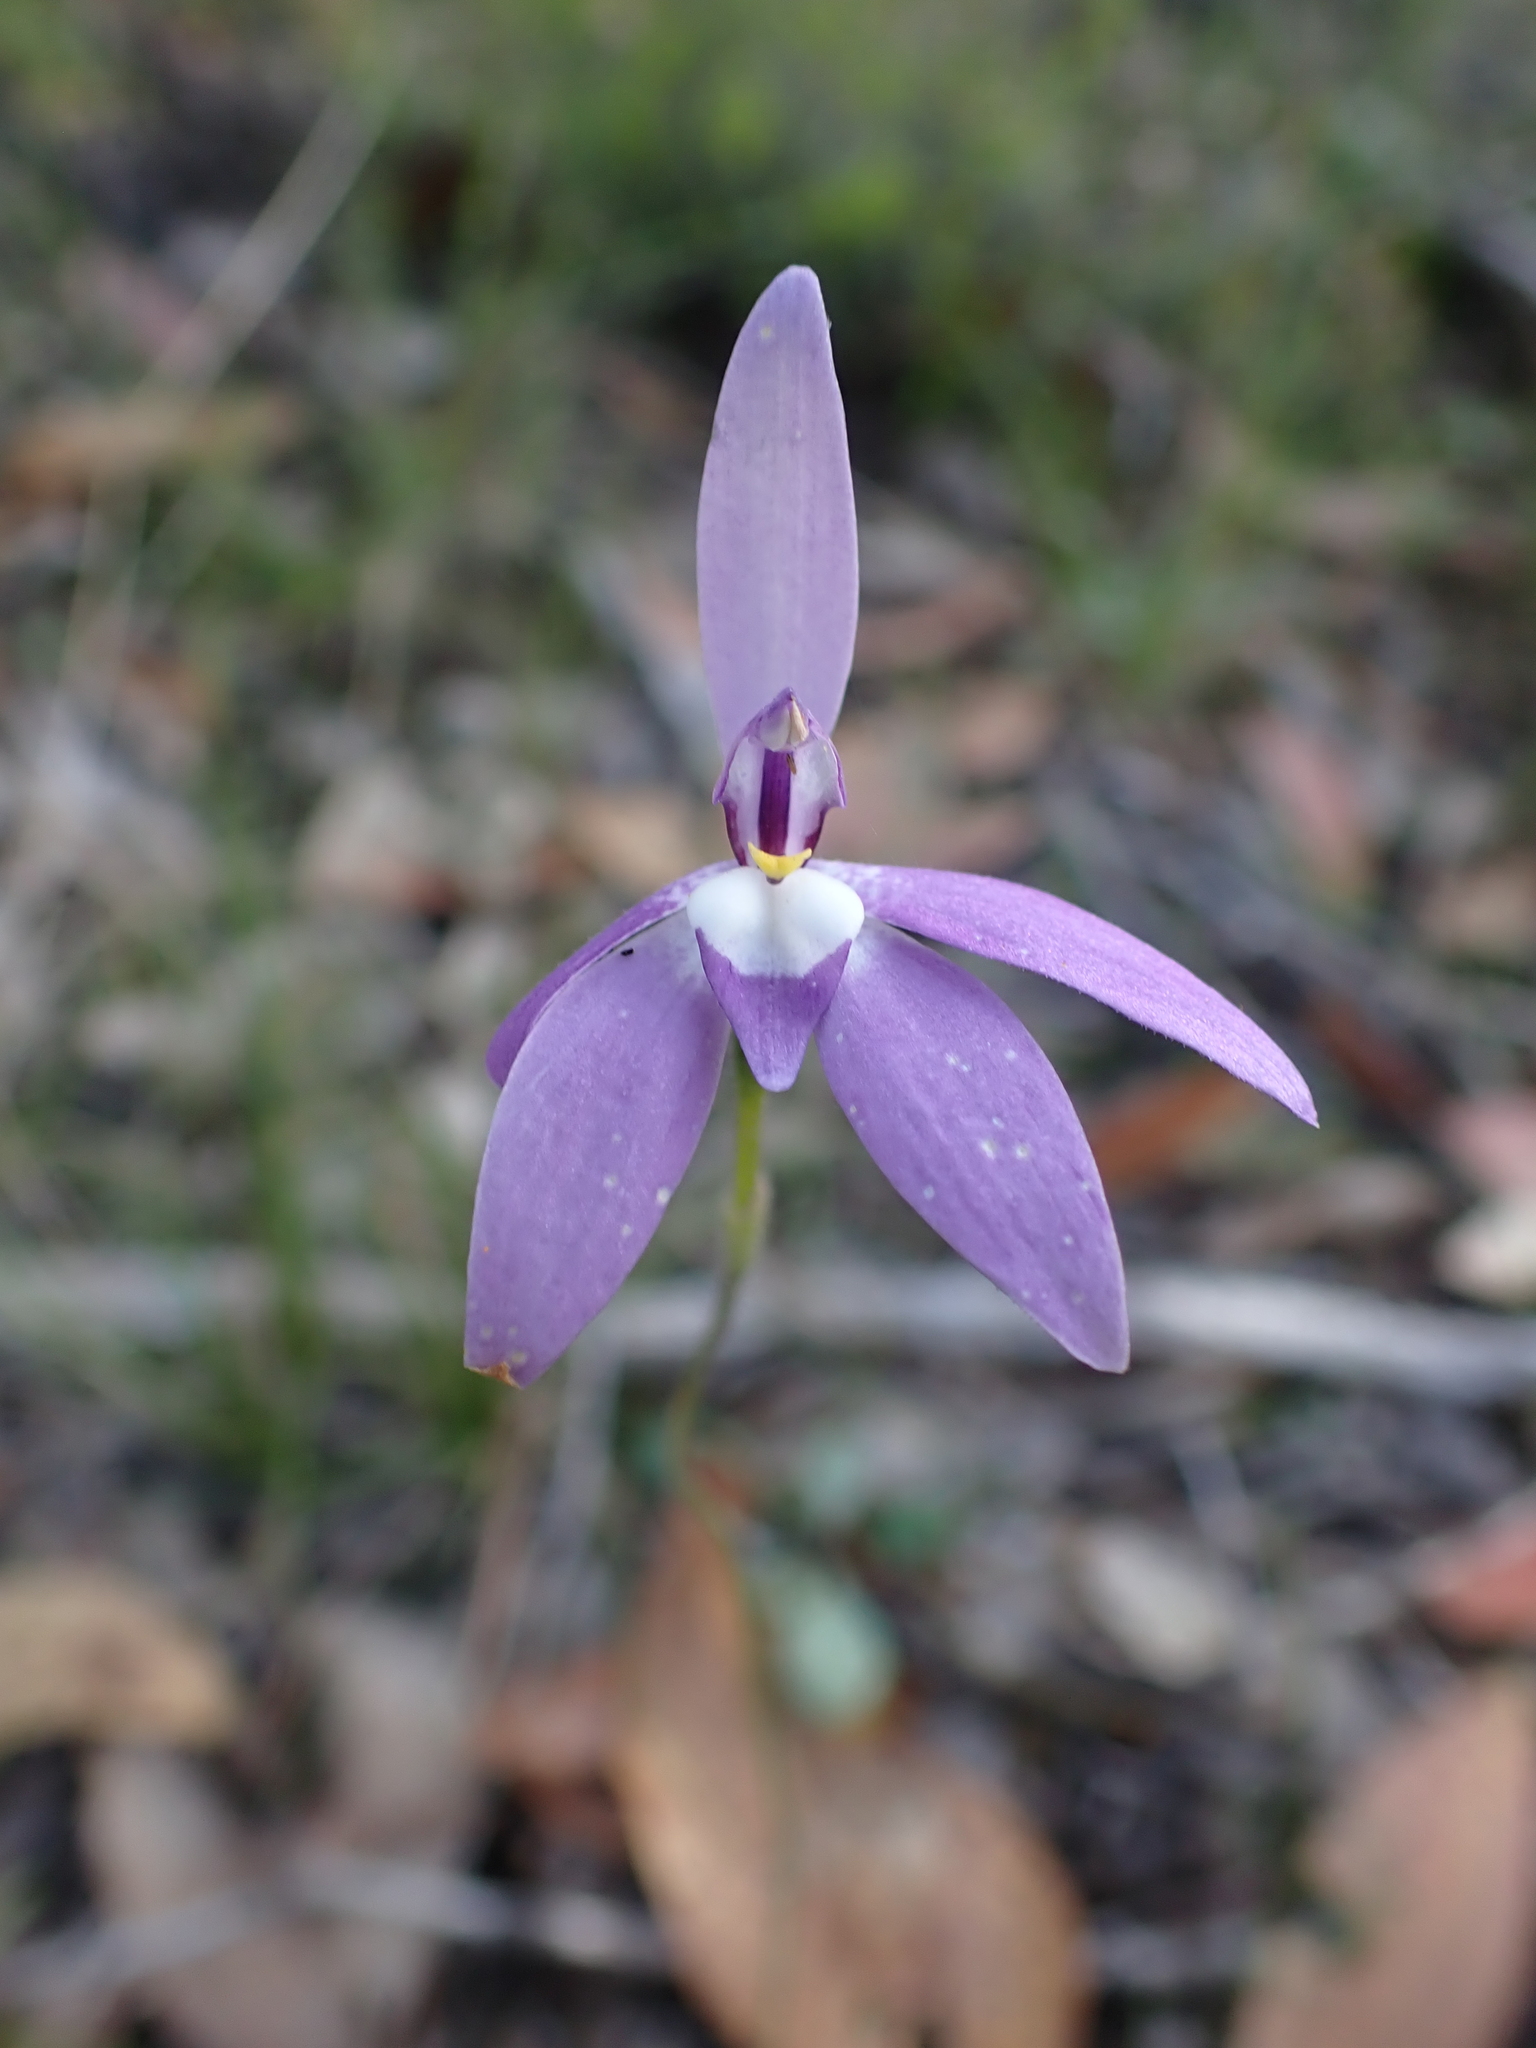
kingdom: Plantae
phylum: Tracheophyta
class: Liliopsida
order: Asparagales
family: Orchidaceae
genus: Caladenia
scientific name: Caladenia major
